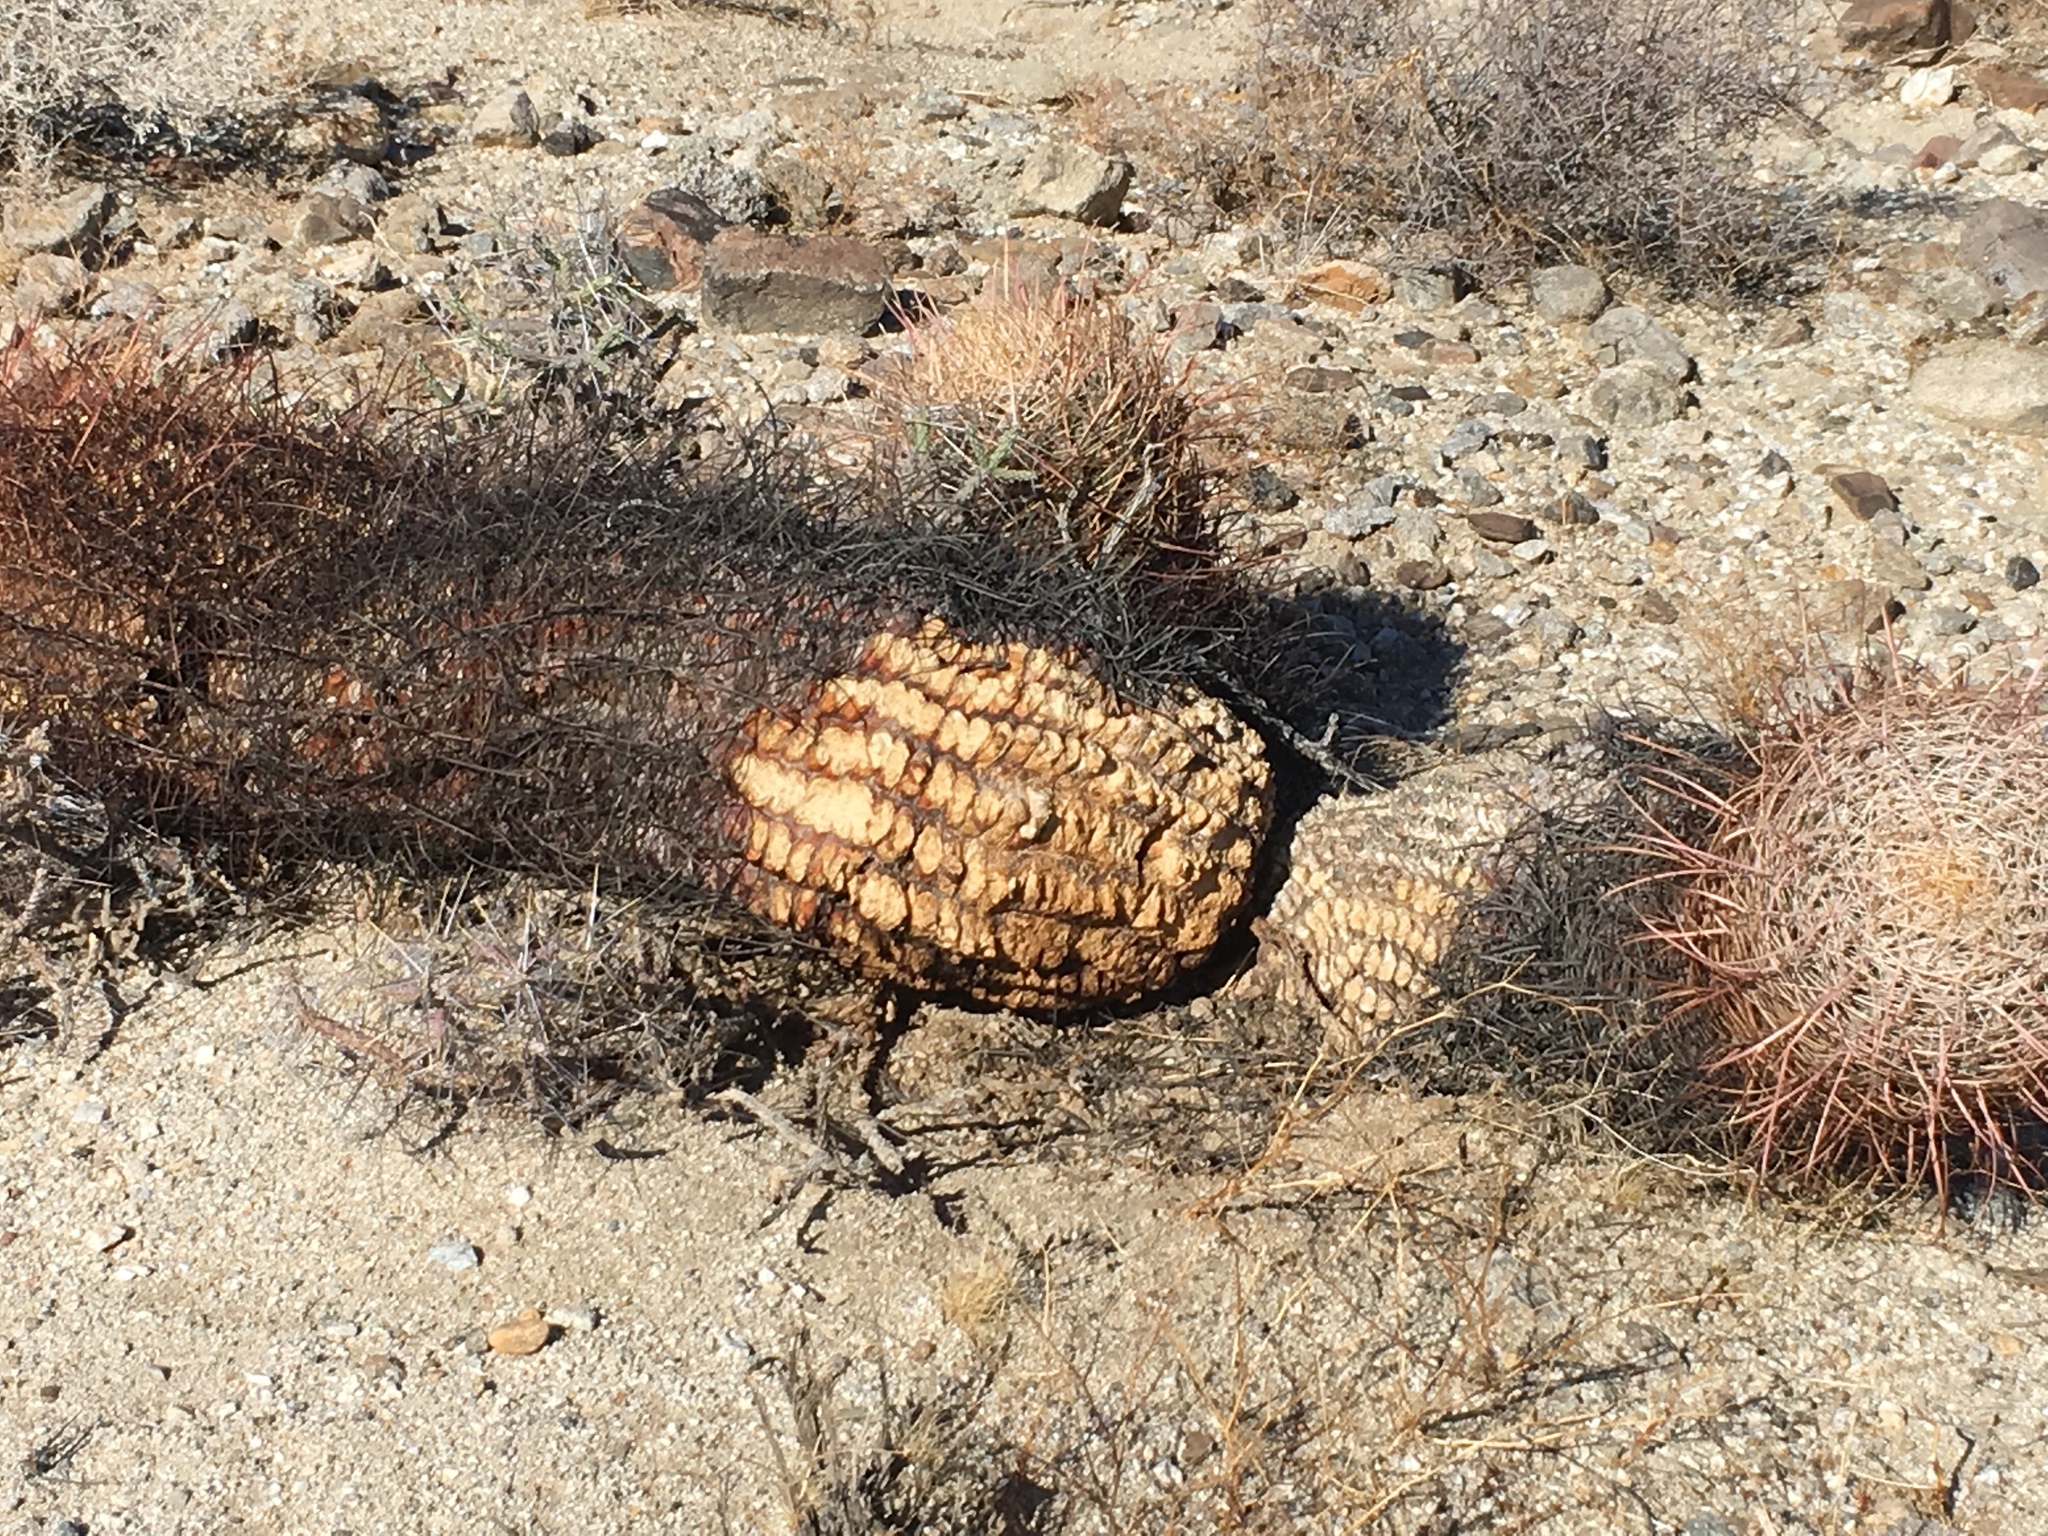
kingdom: Plantae
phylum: Tracheophyta
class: Magnoliopsida
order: Caryophyllales
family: Cactaceae
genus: Ferocactus
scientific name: Ferocactus cylindraceus
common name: California barrel cactus
